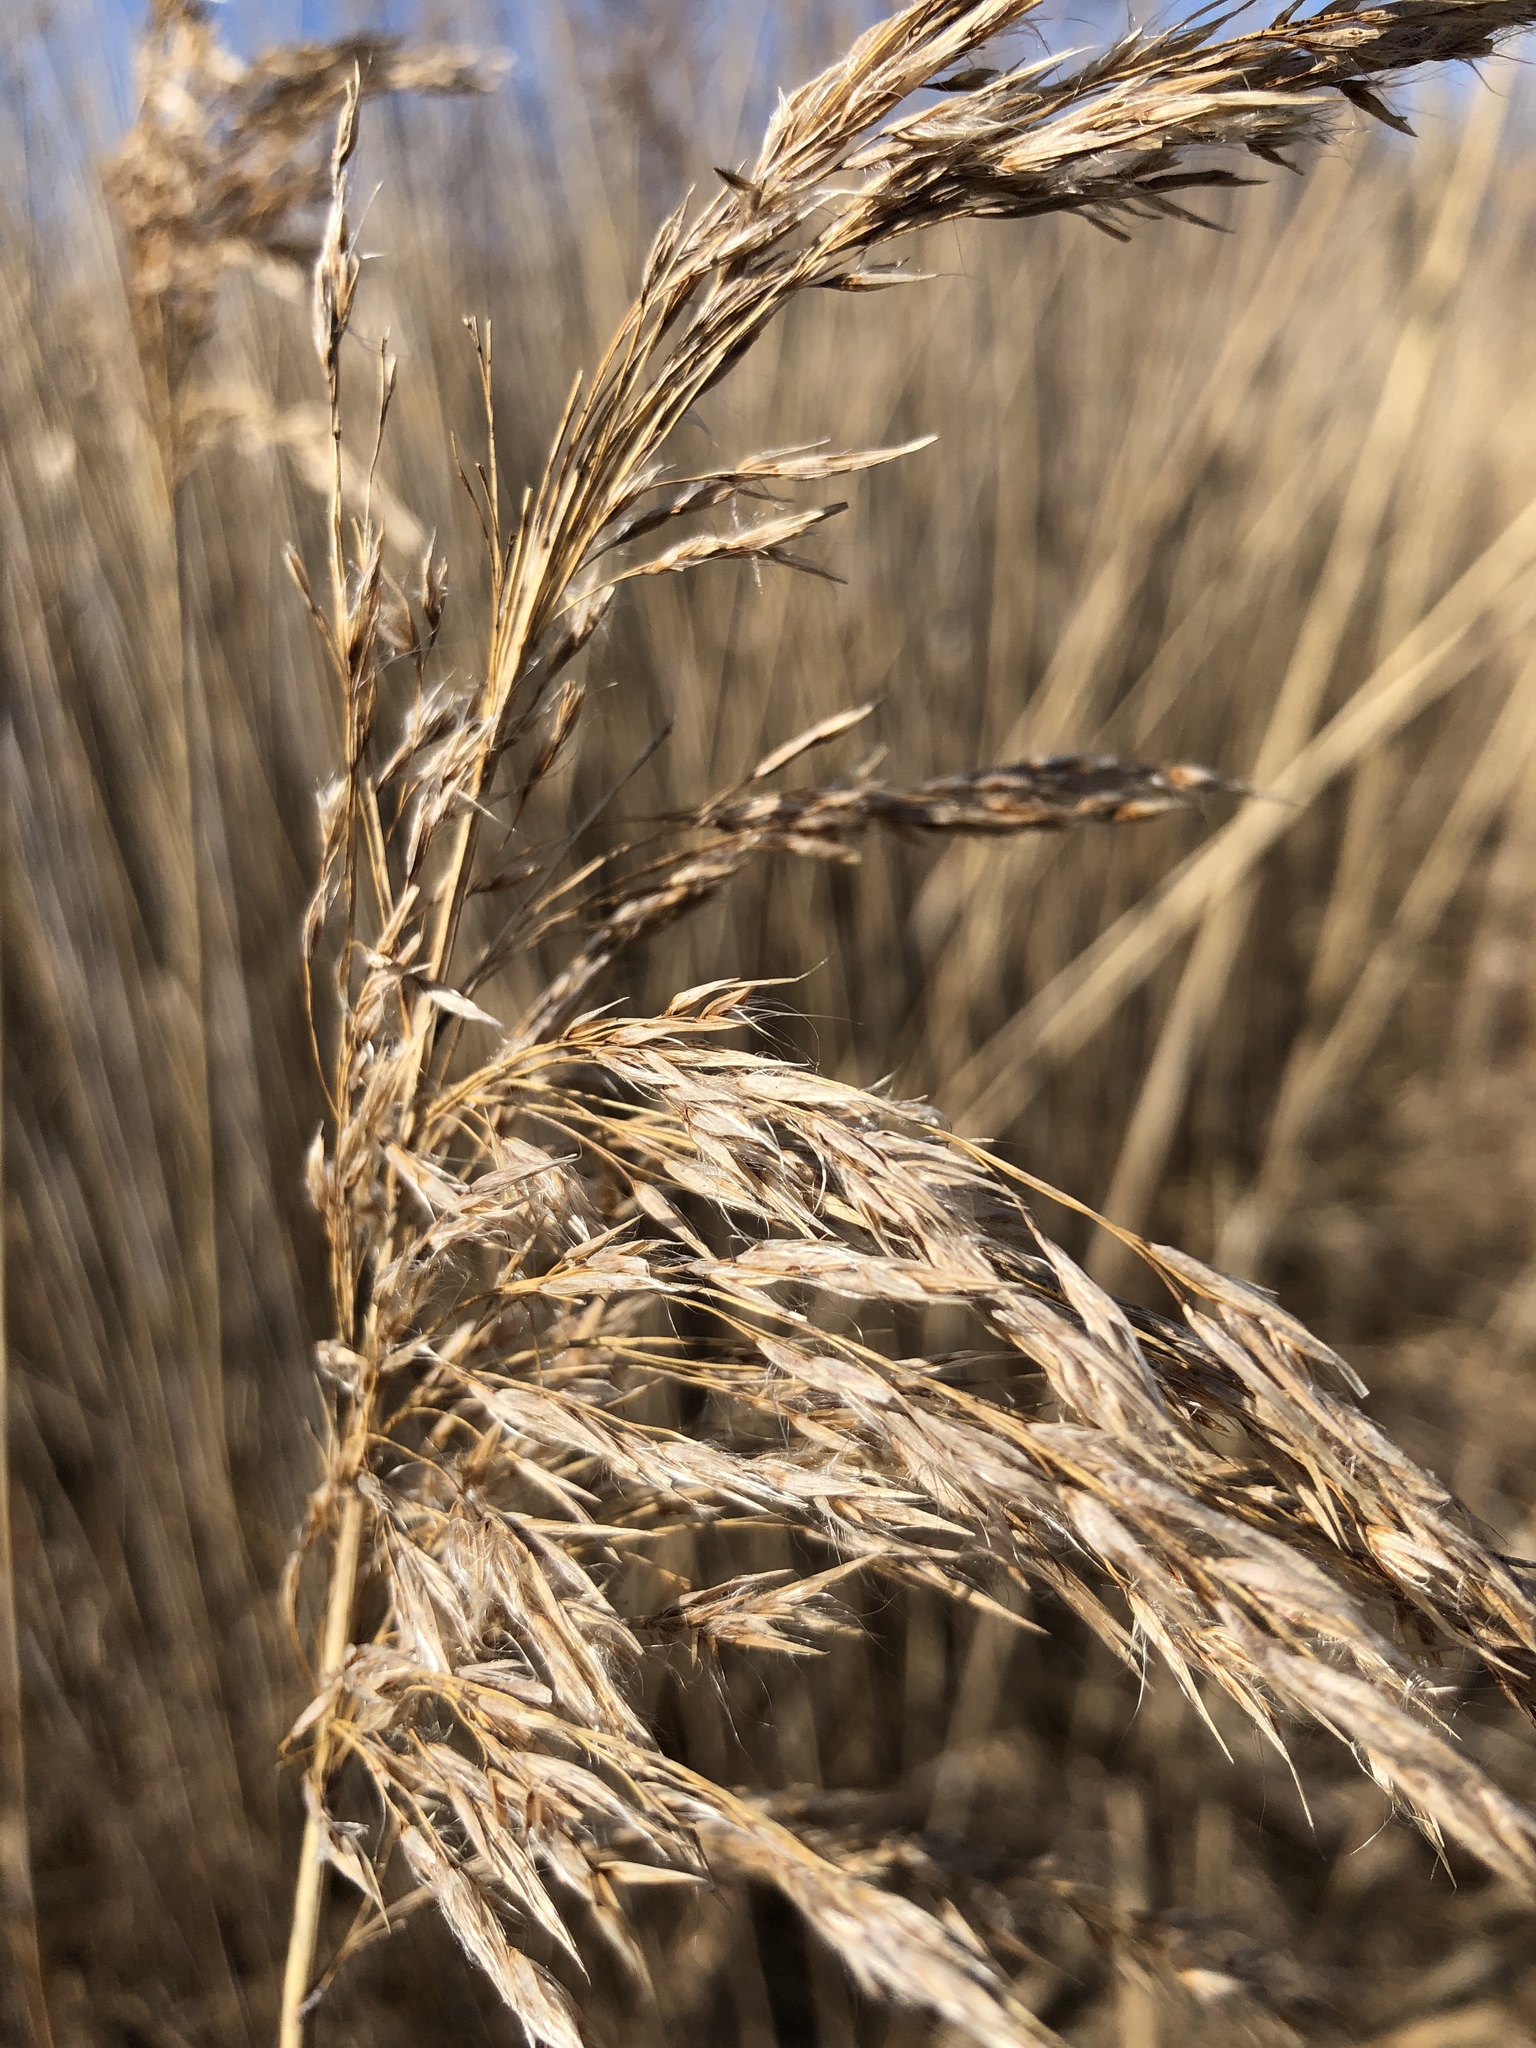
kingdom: Plantae
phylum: Tracheophyta
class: Liliopsida
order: Poales
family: Poaceae
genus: Phragmites
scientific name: Phragmites australis
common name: Common reed
